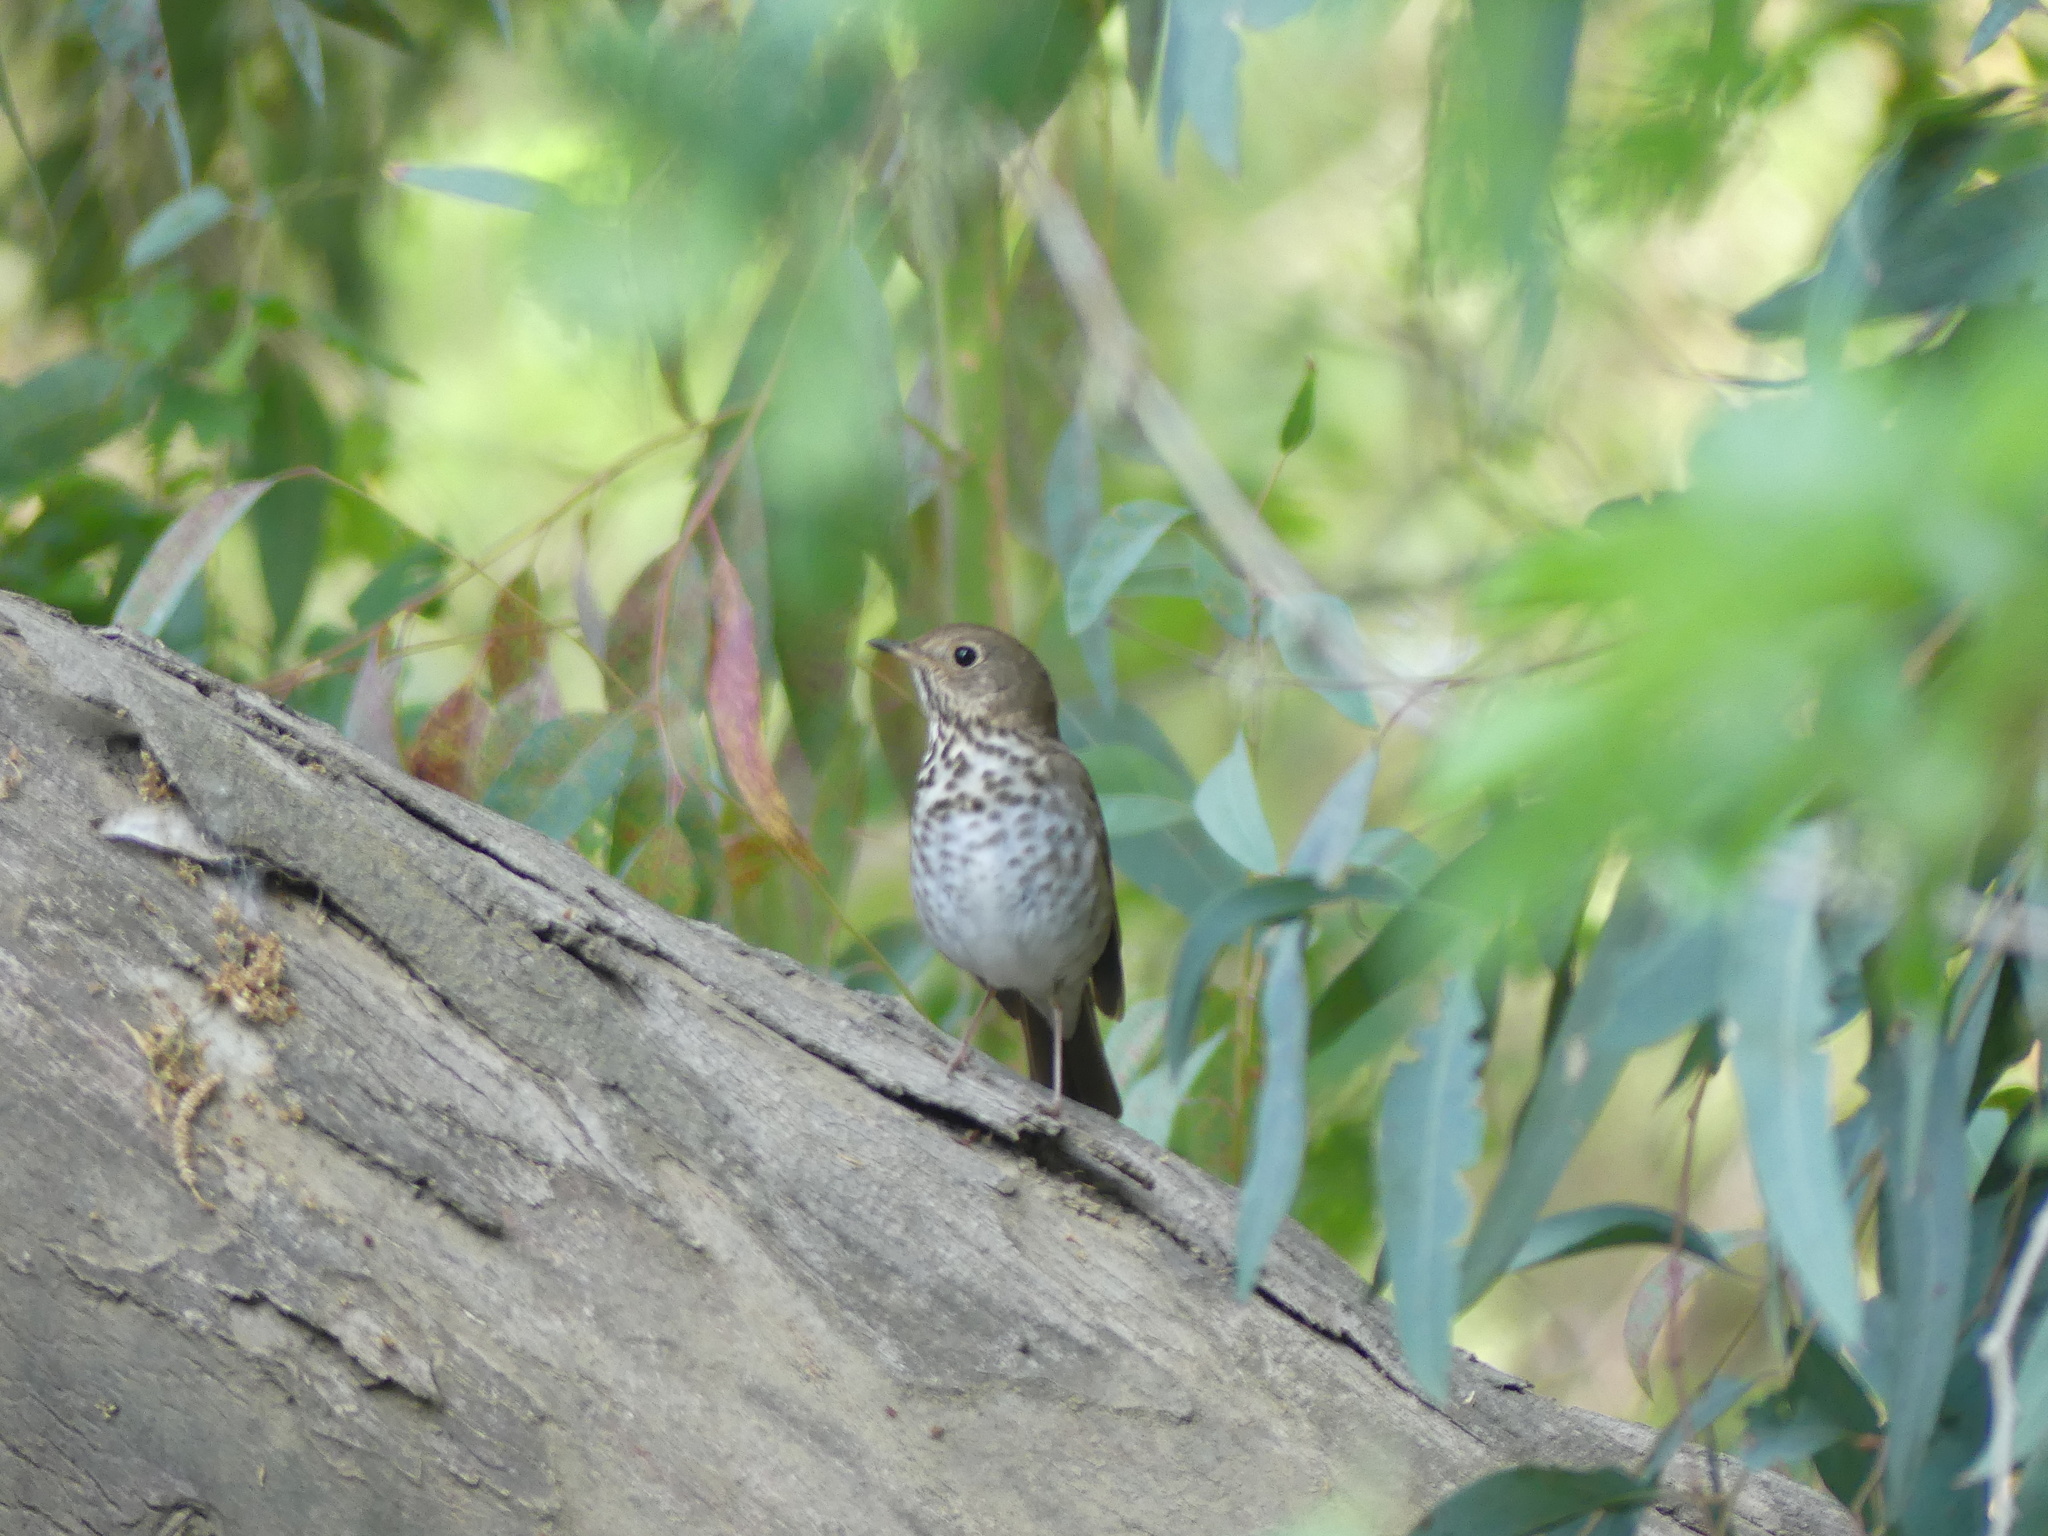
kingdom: Animalia
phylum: Chordata
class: Aves
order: Passeriformes
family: Turdidae
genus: Catharus
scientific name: Catharus guttatus
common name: Hermit thrush
